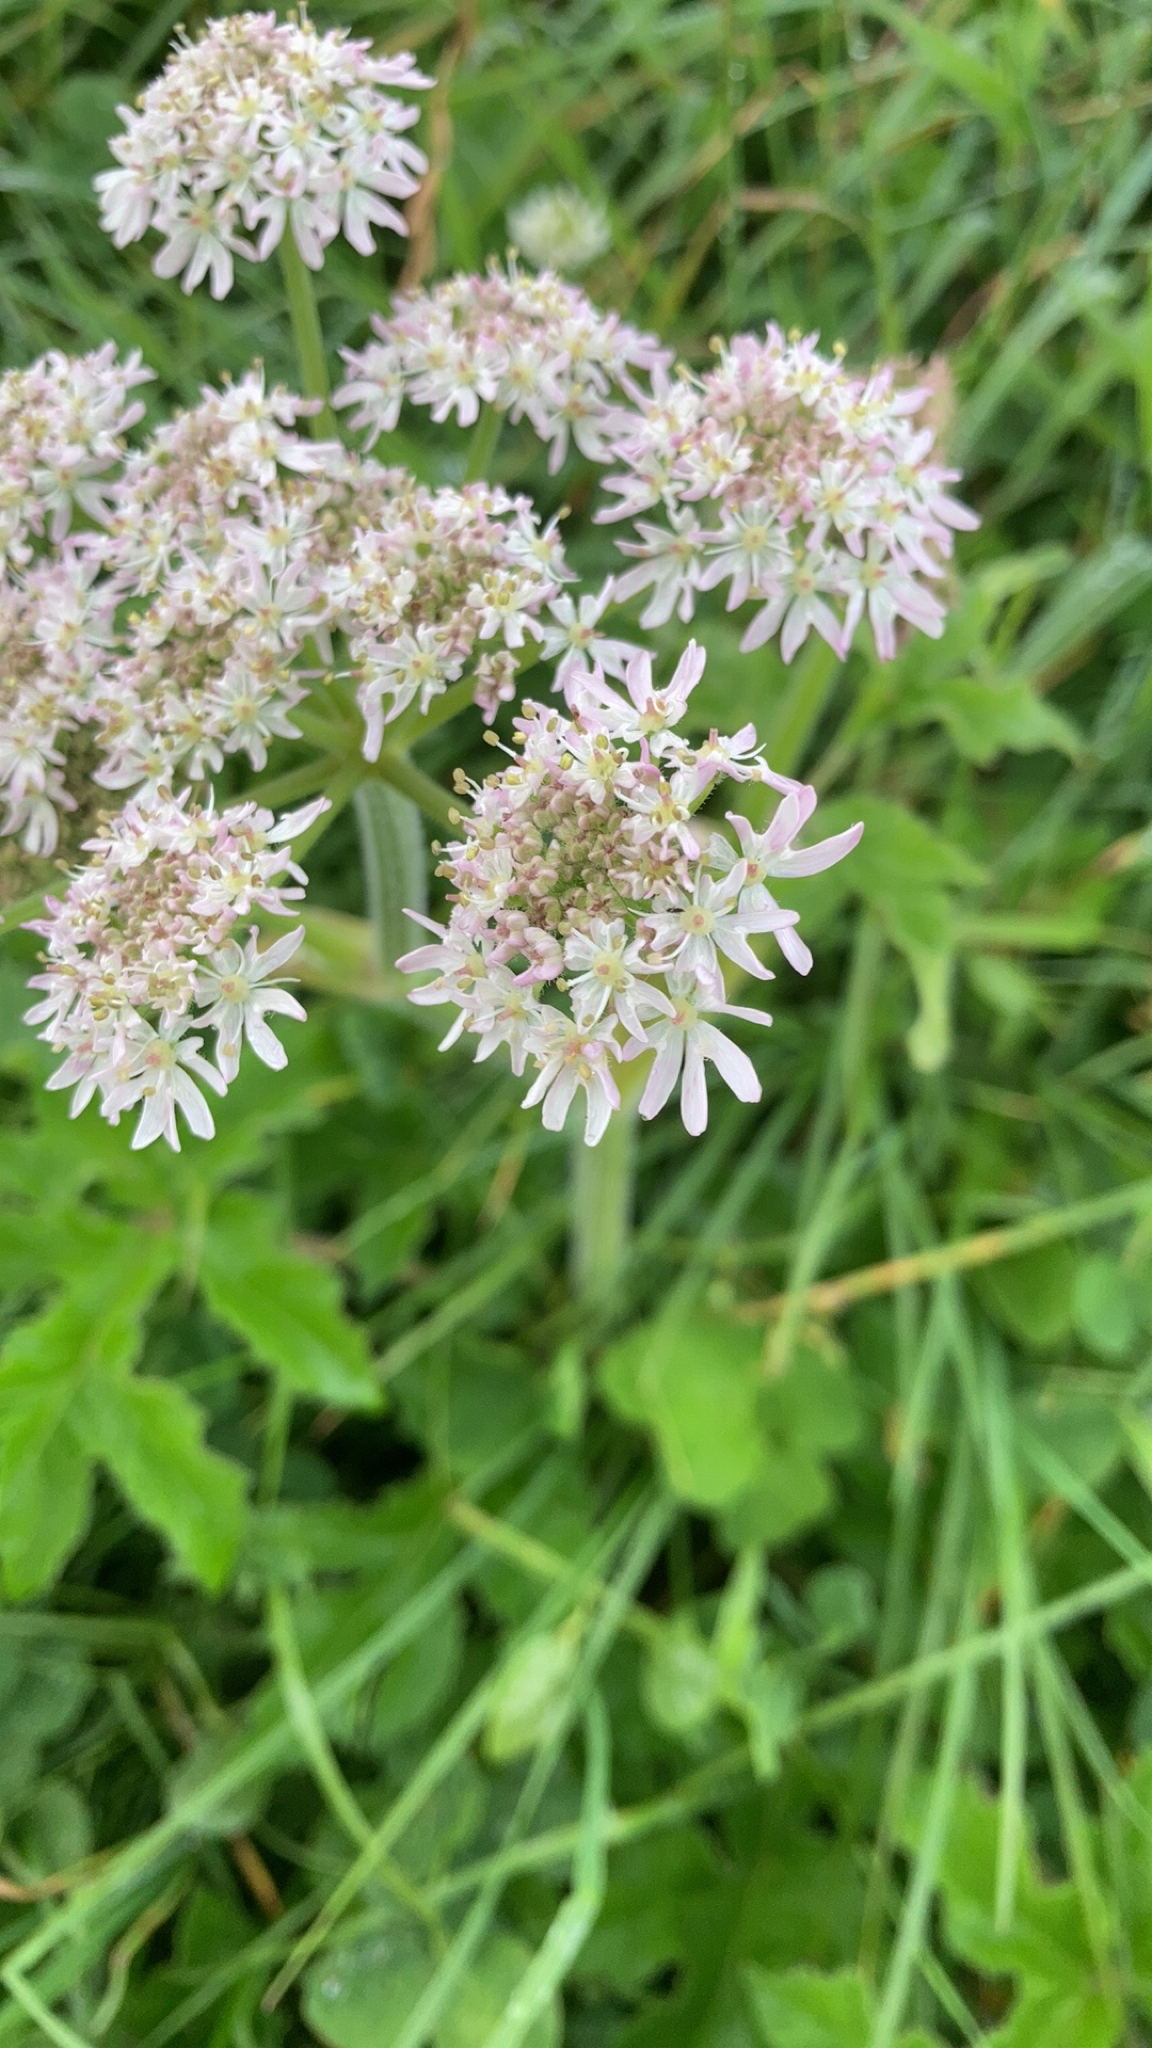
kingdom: Plantae
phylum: Tracheophyta
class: Magnoliopsida
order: Apiales
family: Apiaceae
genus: Heracleum
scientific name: Heracleum sphondylium
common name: Hogweed
